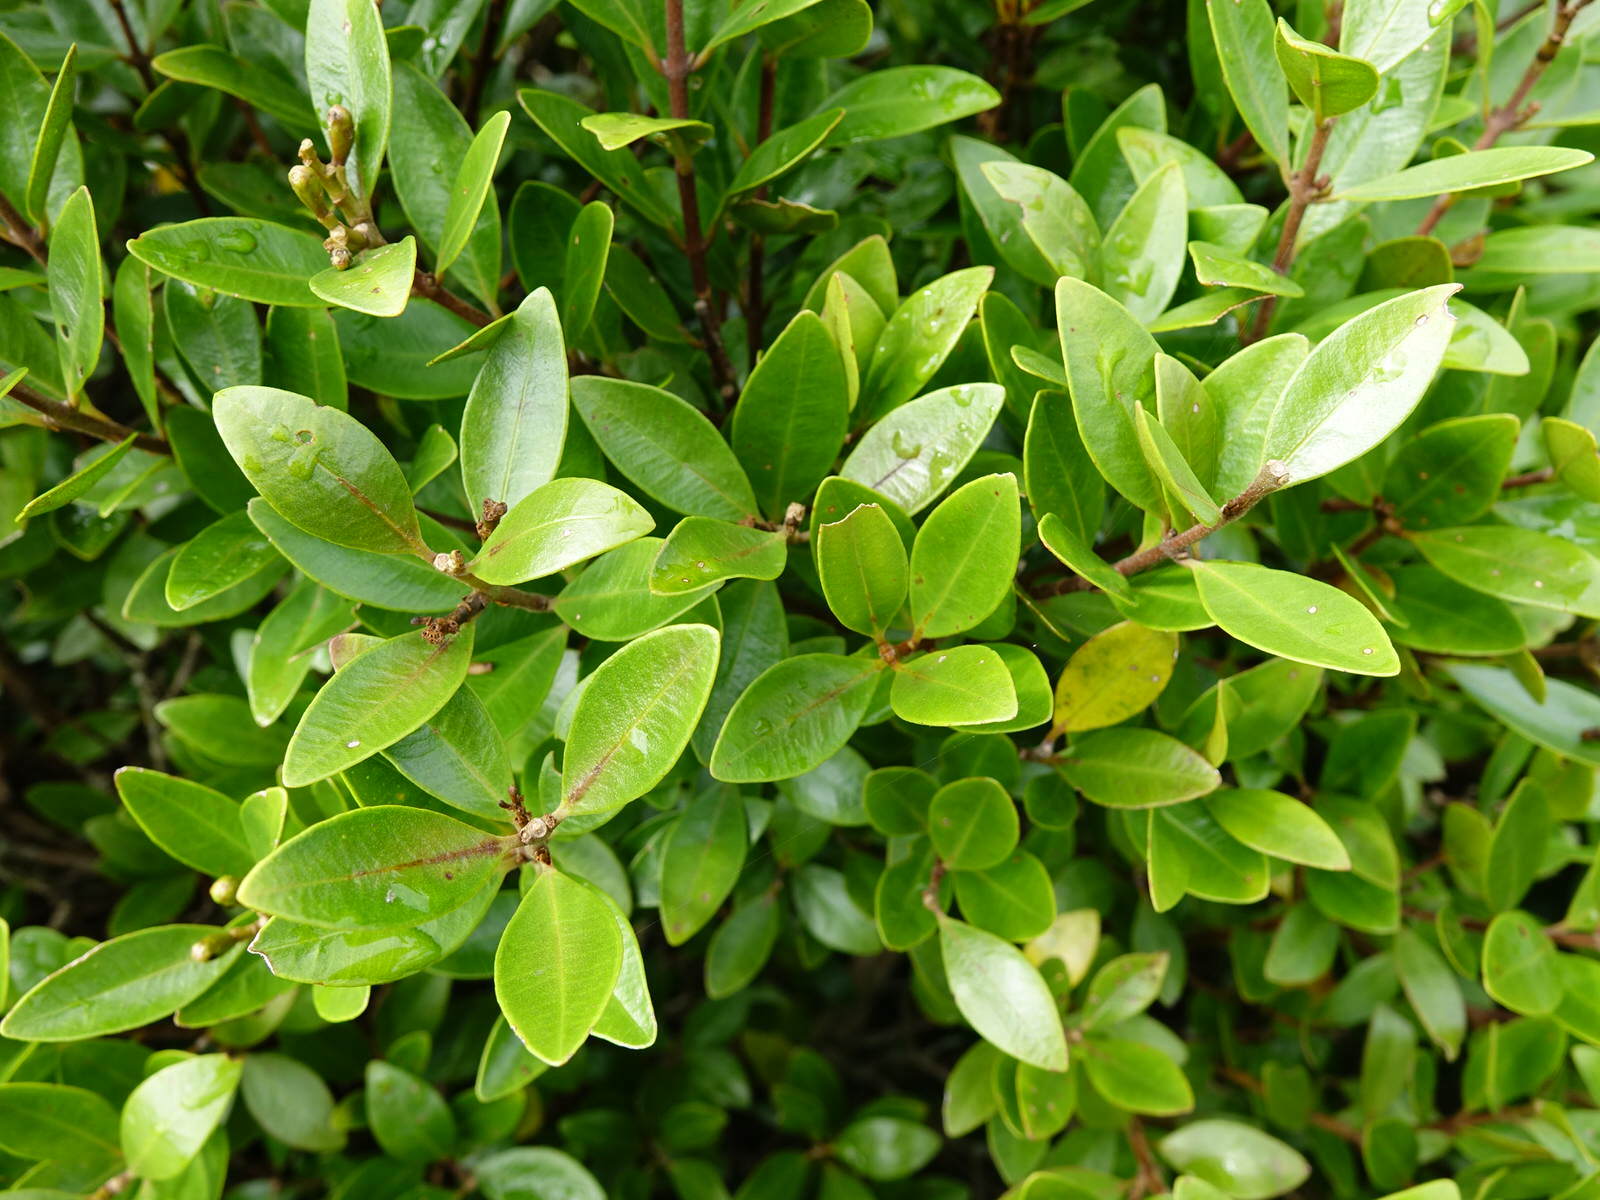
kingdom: Plantae
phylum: Tracheophyta
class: Magnoliopsida
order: Myrtales
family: Myrtaceae
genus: Metrosideros
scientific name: Metrosideros fulgens
